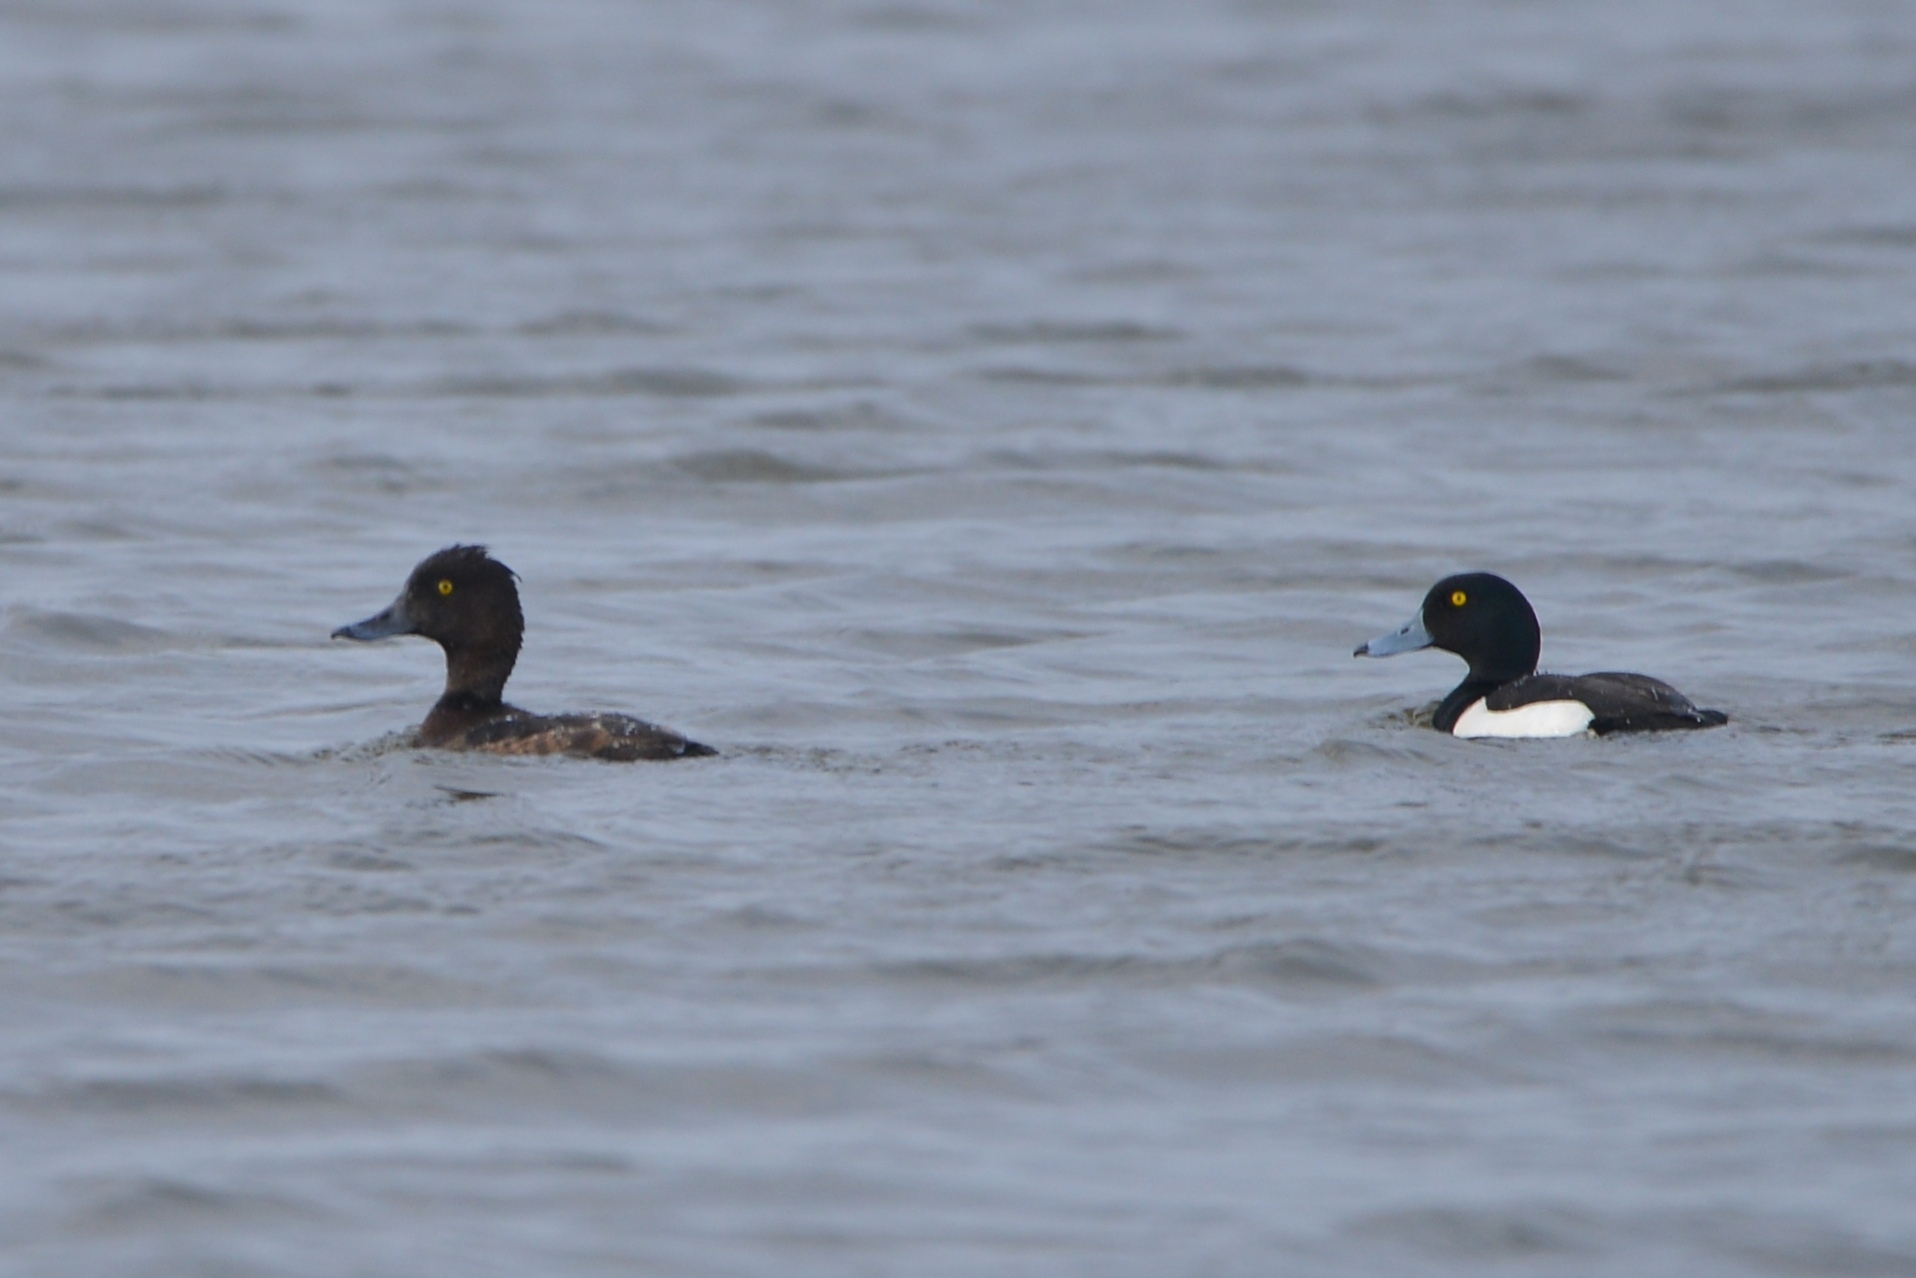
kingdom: Animalia
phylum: Chordata
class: Aves
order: Anseriformes
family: Anatidae
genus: Aythya
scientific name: Aythya fuligula
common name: Tufted duck
